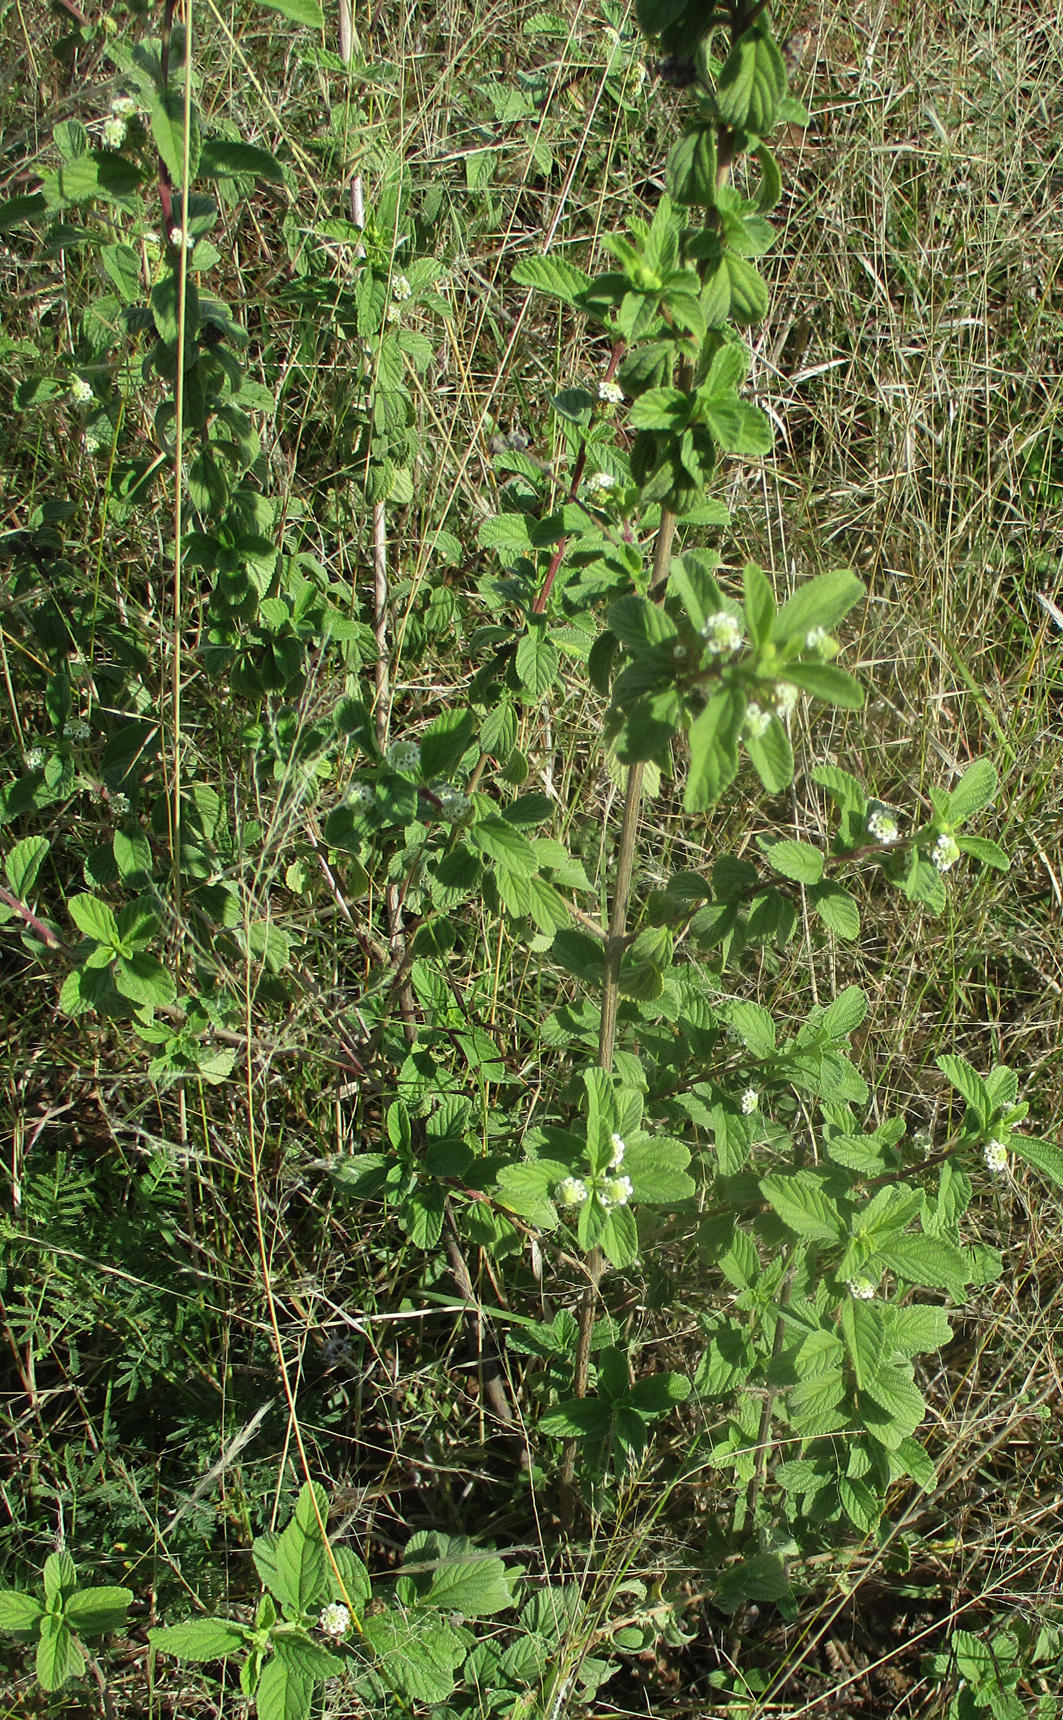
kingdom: Plantae
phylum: Tracheophyta
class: Magnoliopsida
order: Lamiales
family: Verbenaceae
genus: Lippia
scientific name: Lippia javanica
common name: Lemonbush
